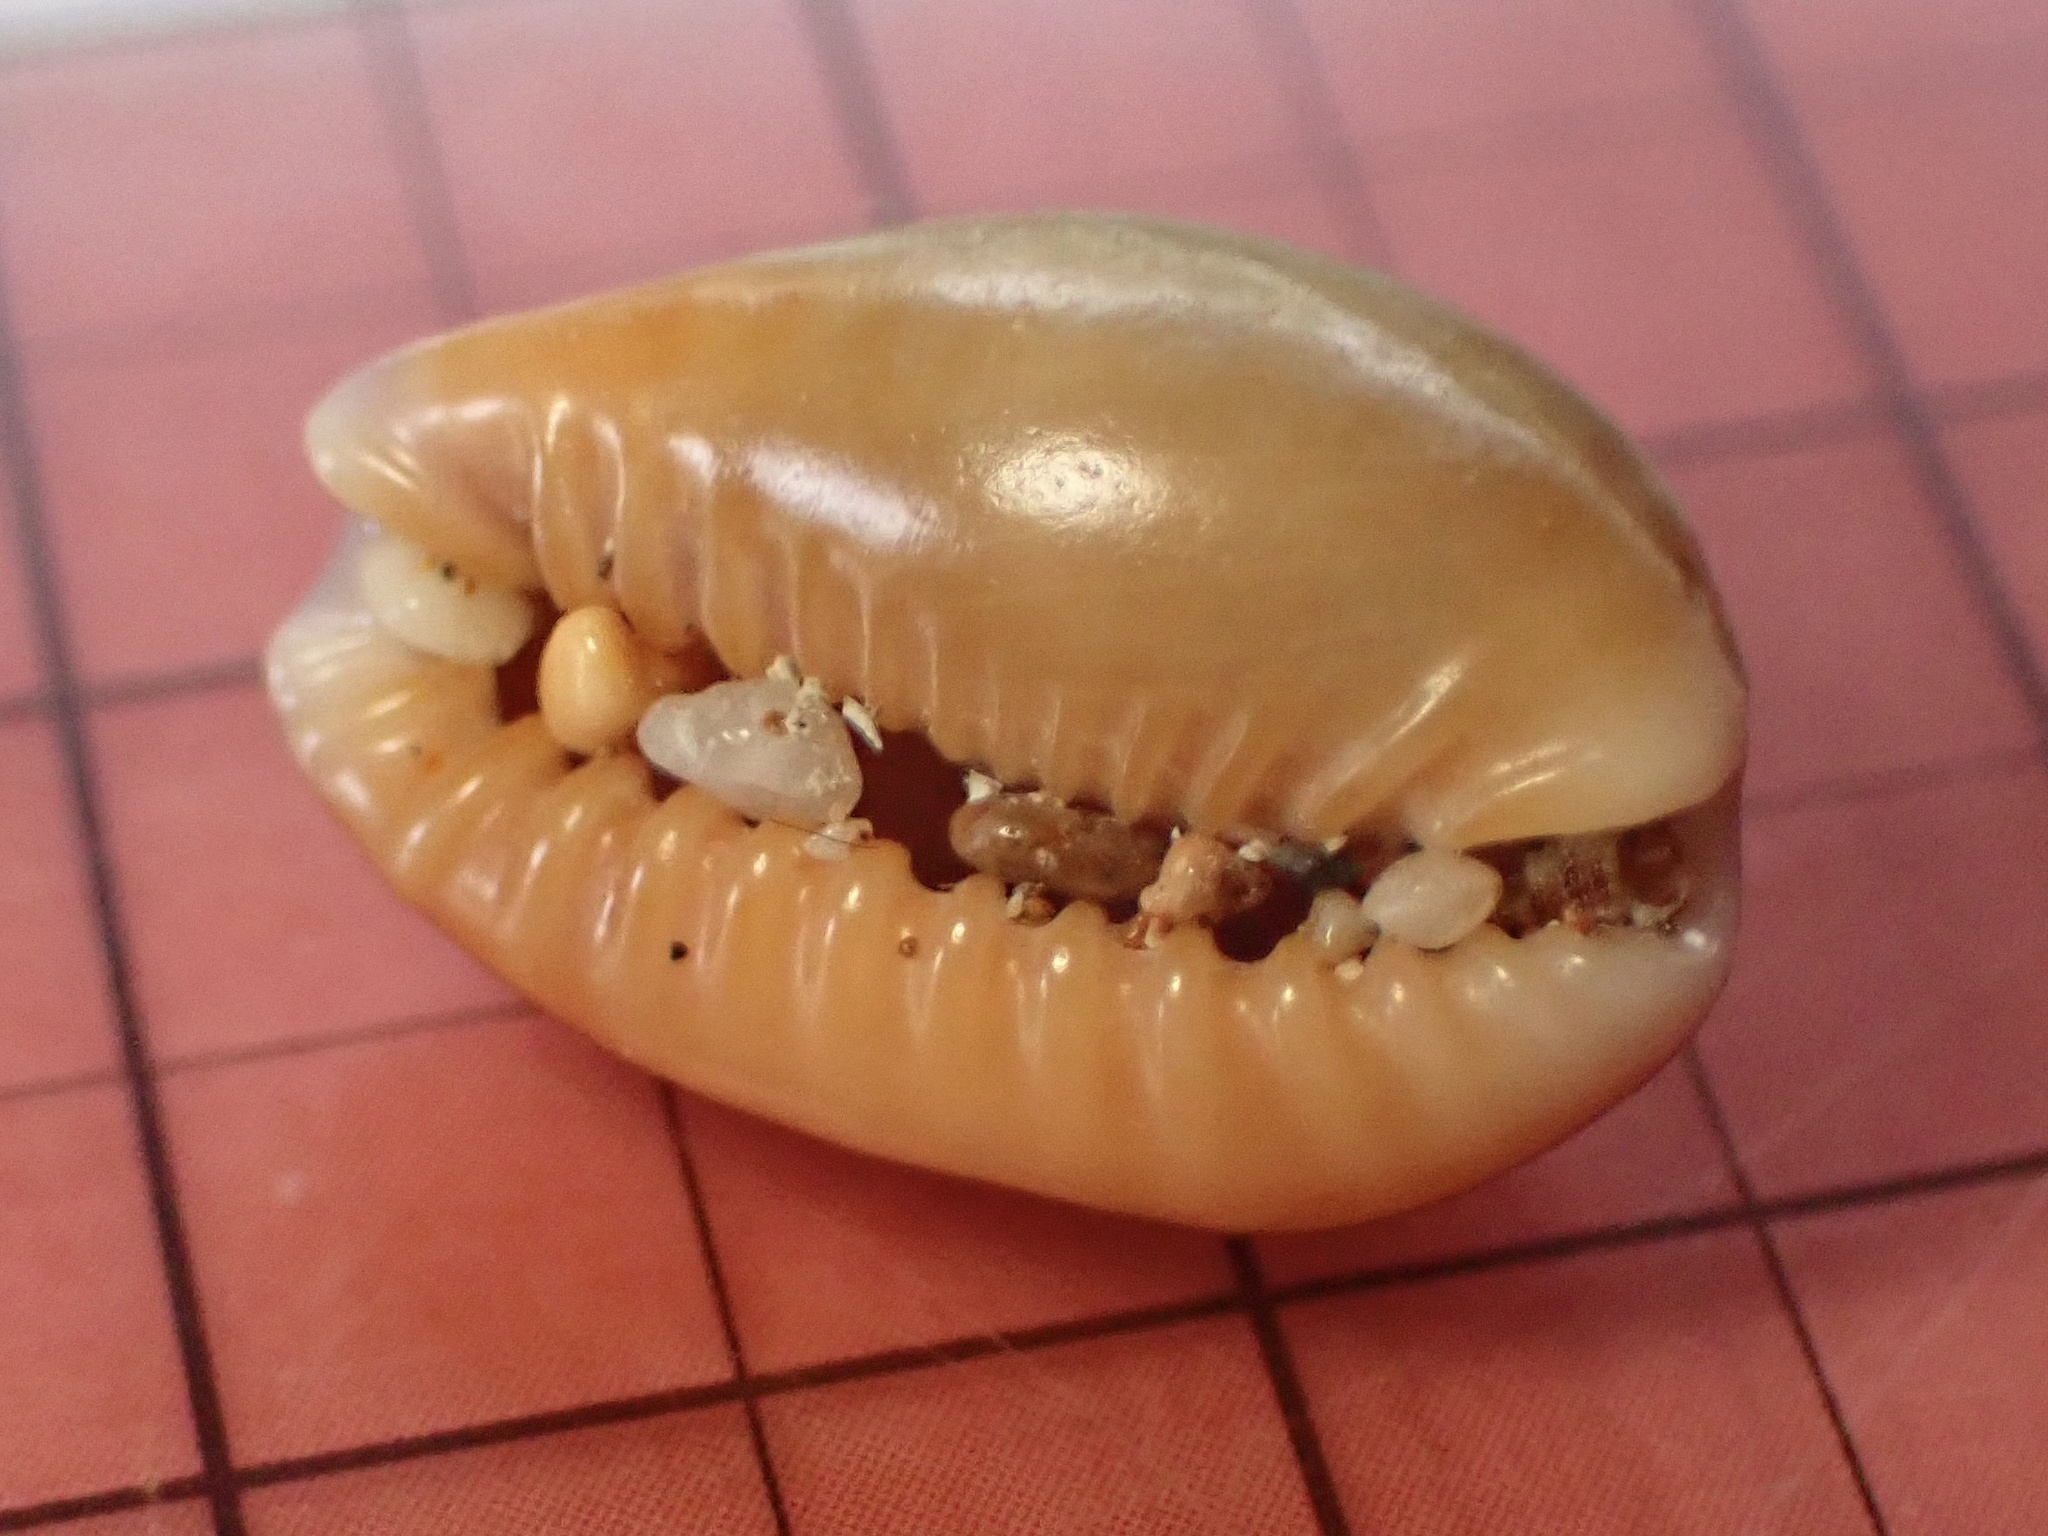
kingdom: Animalia
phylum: Mollusca
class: Gastropoda
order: Littorinimorpha
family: Cypraeidae
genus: Naria
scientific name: Naria helvola
